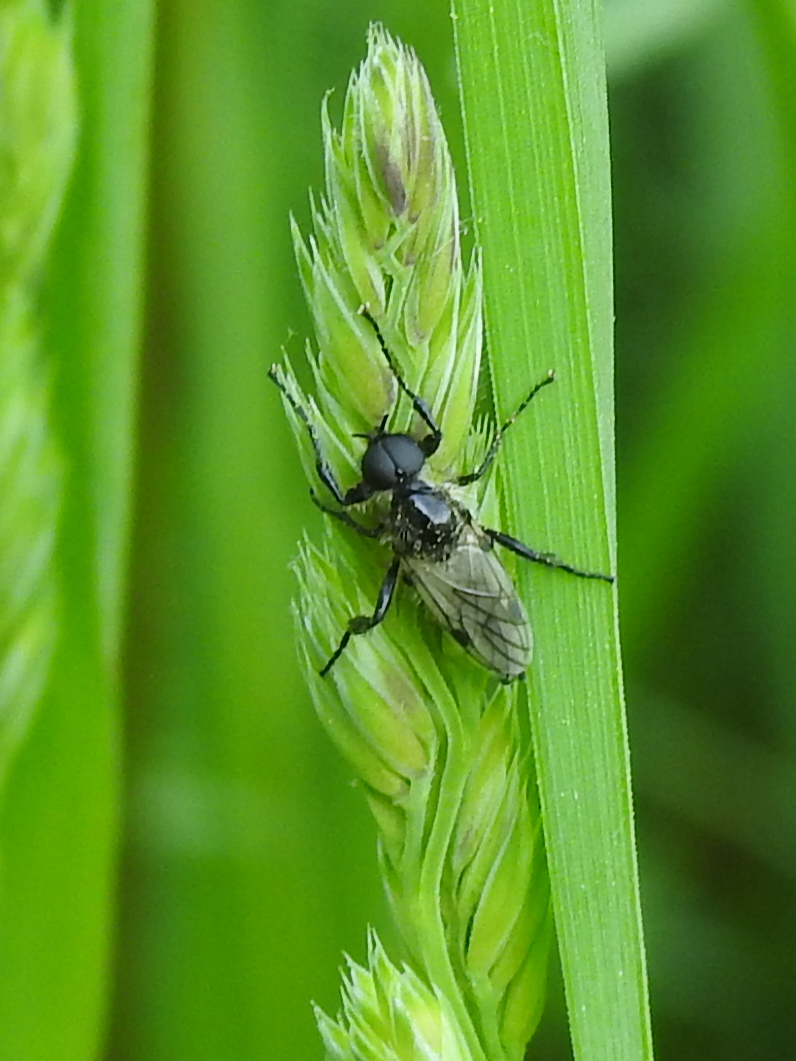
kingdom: Animalia
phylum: Arthropoda
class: Insecta
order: Diptera
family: Bibionidae
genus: Bibio
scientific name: Bibio albipennis
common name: White-winged march fly
